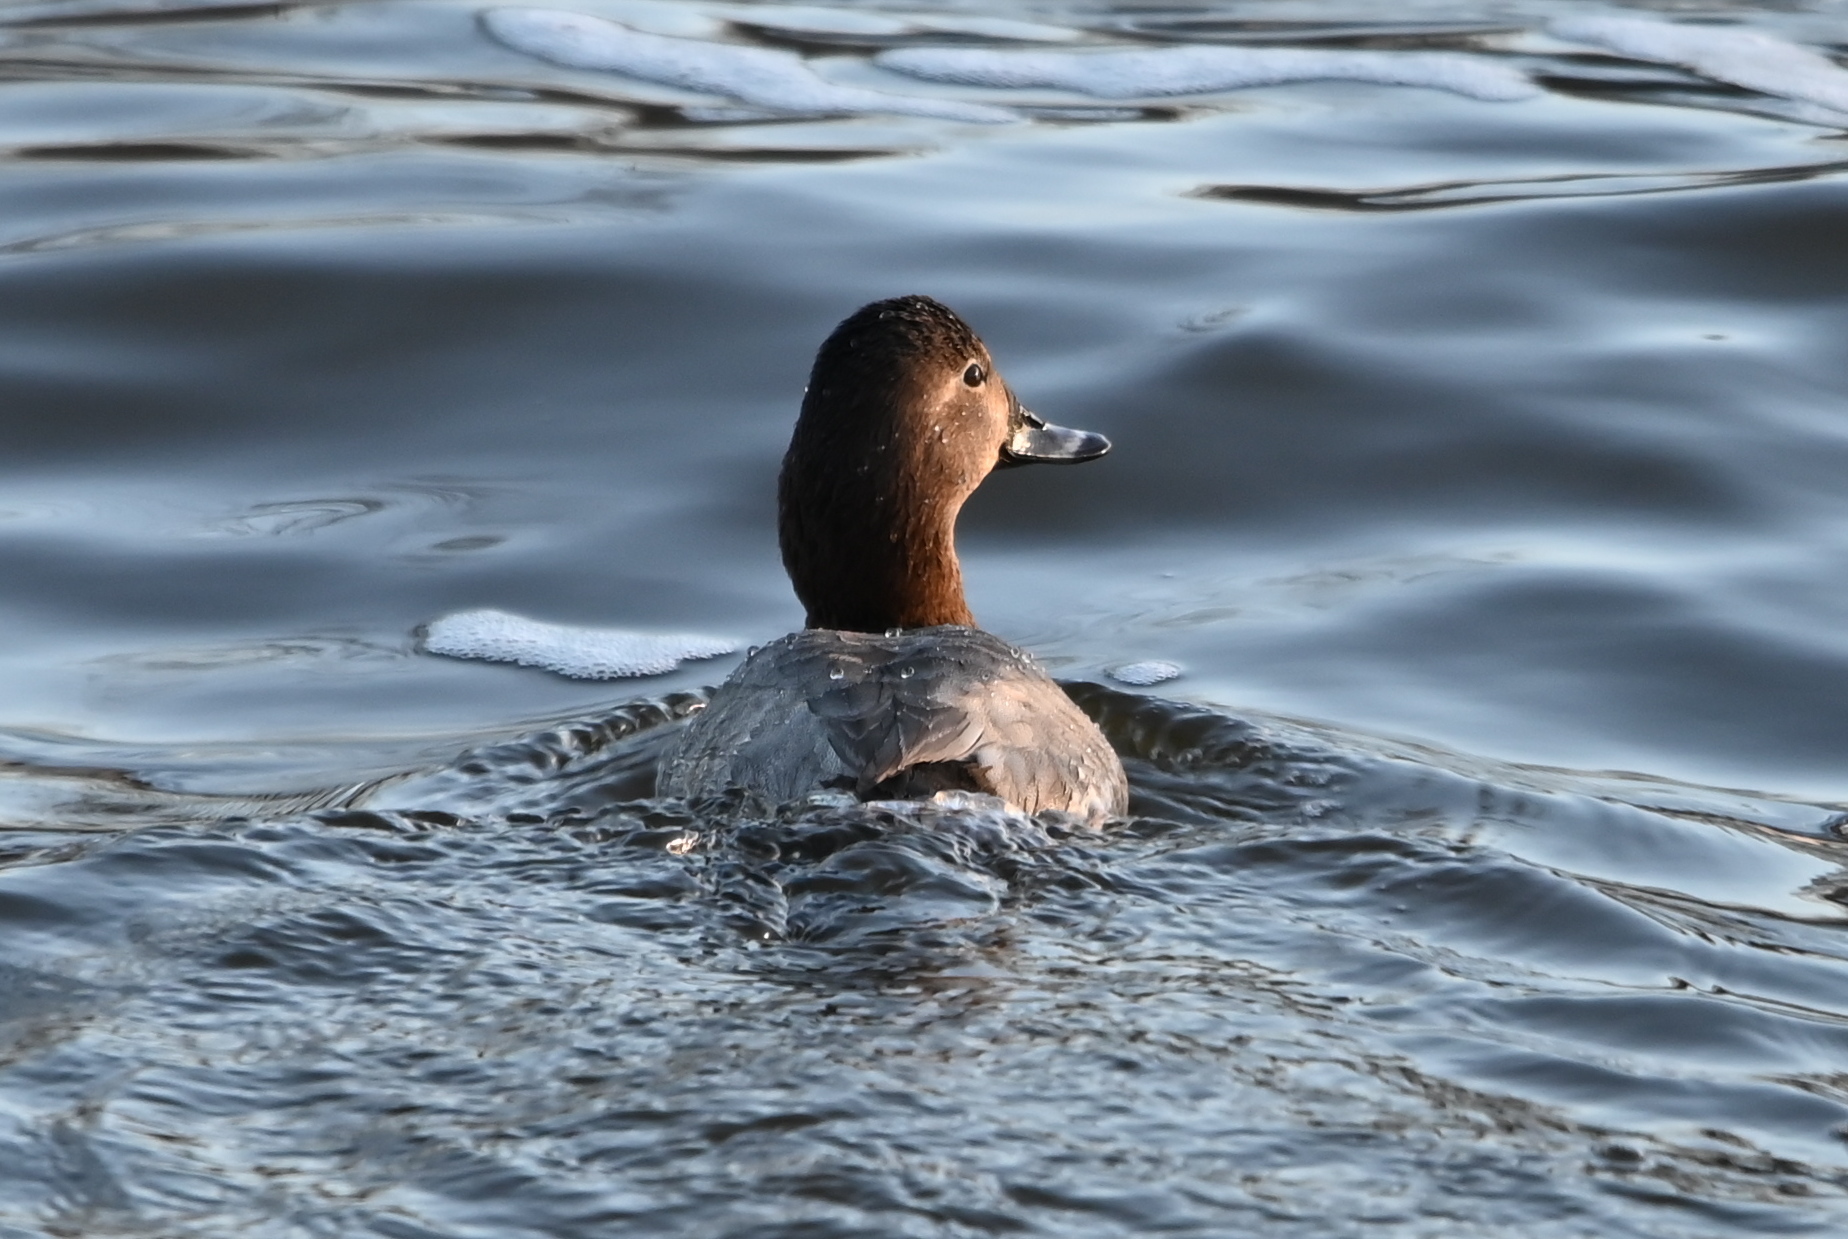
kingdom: Animalia
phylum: Chordata
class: Aves
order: Anseriformes
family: Anatidae
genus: Aythya
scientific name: Aythya ferina
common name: Common pochard
